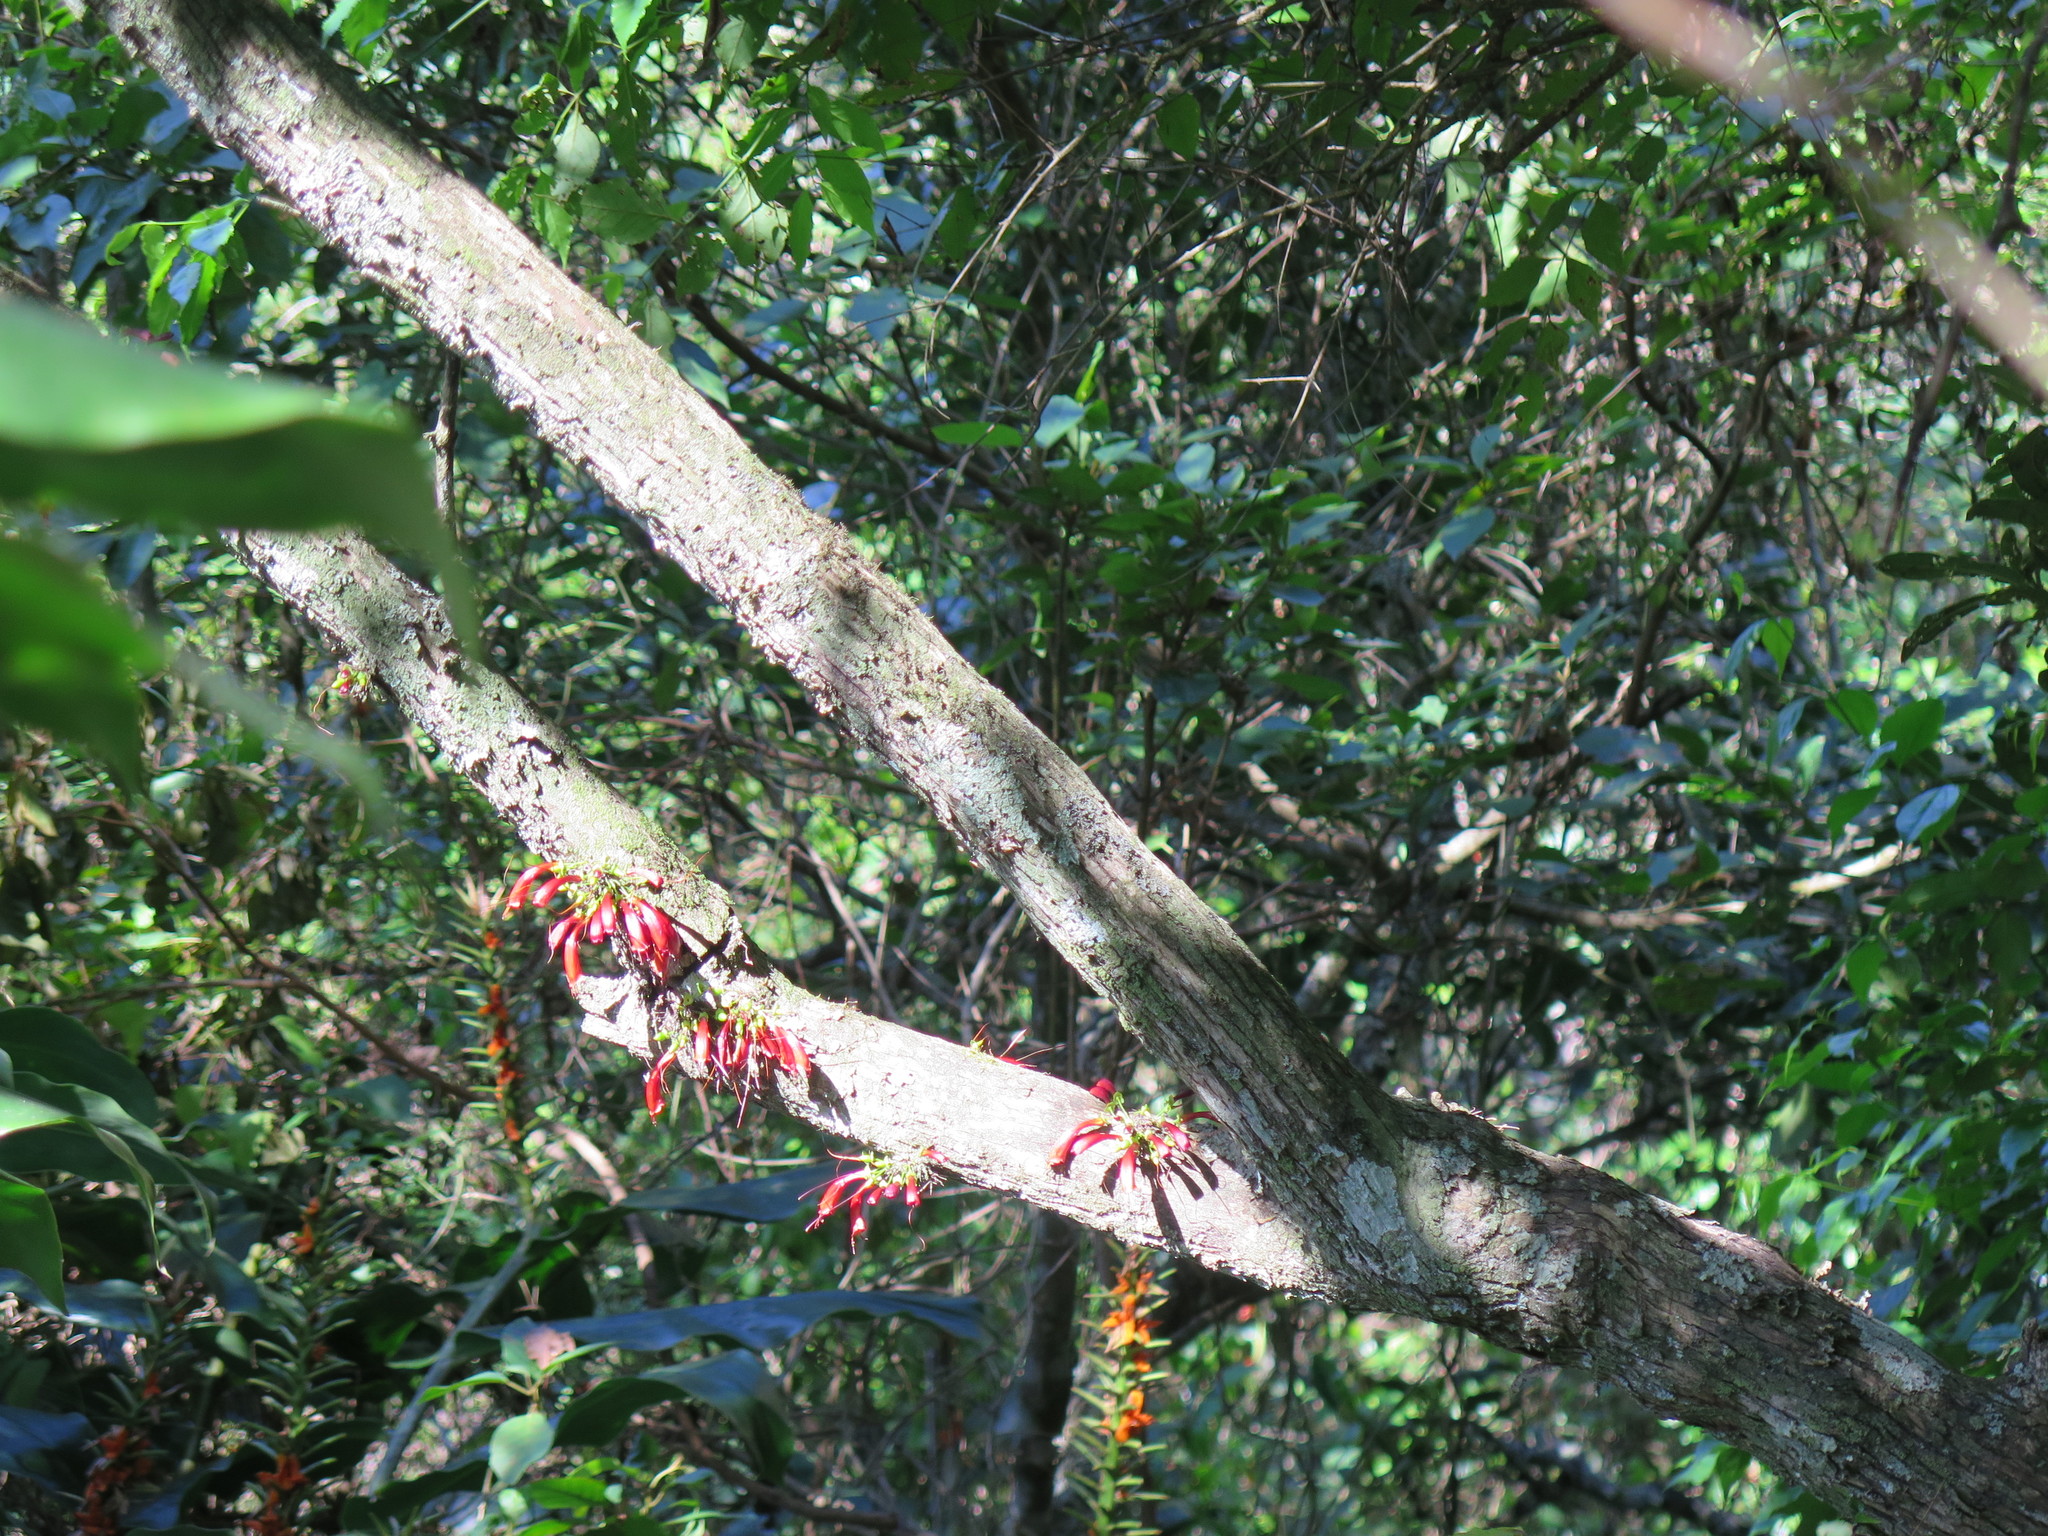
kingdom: Plantae
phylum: Tracheophyta
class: Magnoliopsida
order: Lamiales
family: Stilbaceae
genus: Halleria
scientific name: Halleria lucida
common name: Tree fuschia
